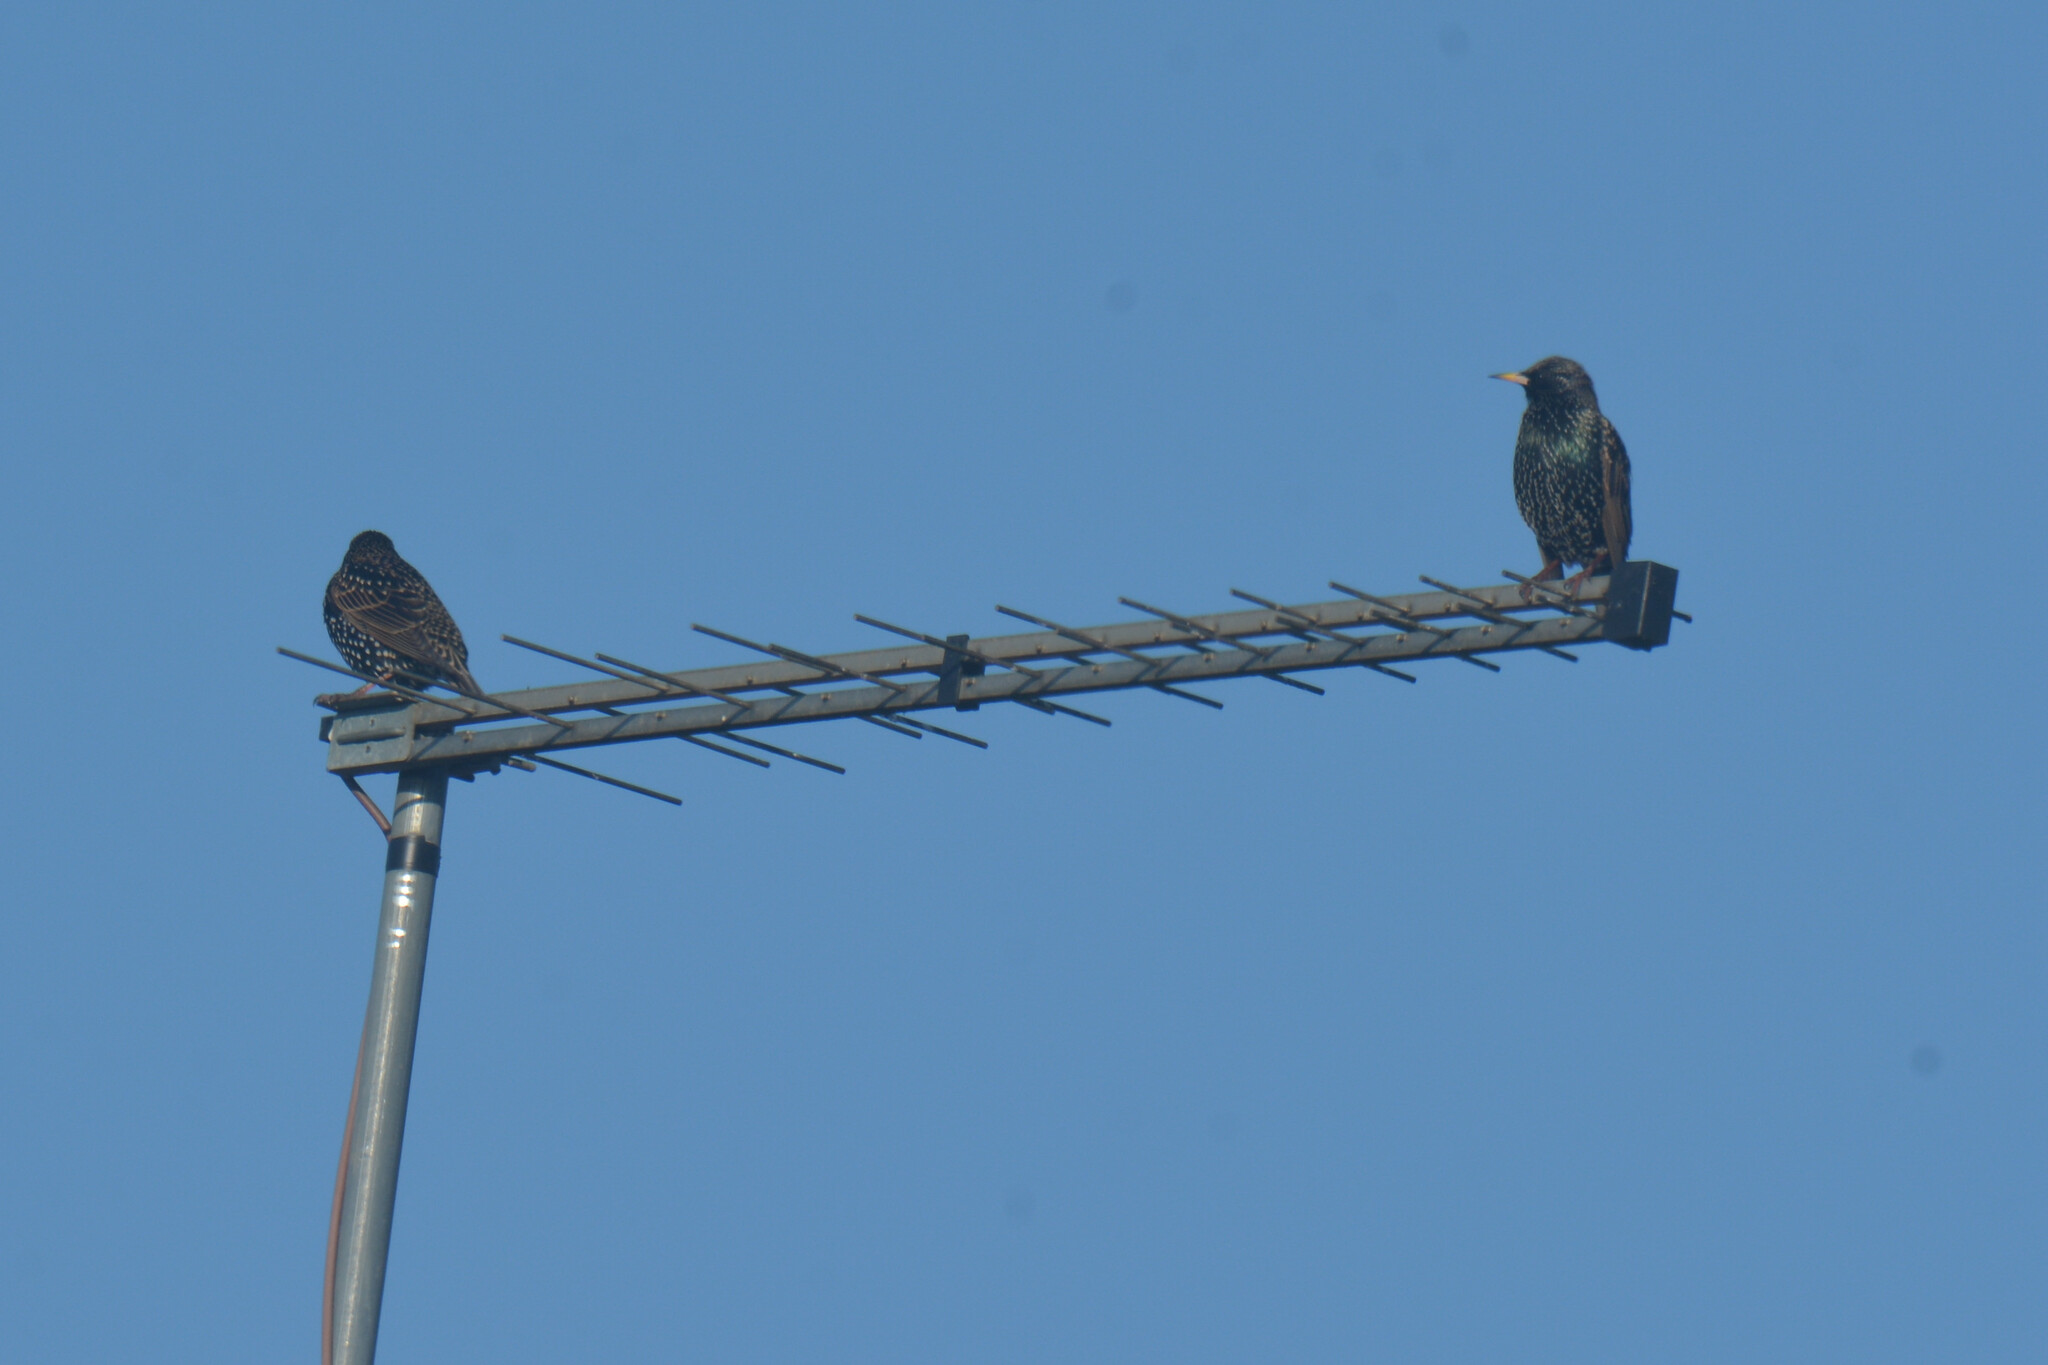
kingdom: Animalia
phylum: Chordata
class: Aves
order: Passeriformes
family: Sturnidae
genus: Sturnus
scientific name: Sturnus vulgaris
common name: Common starling
